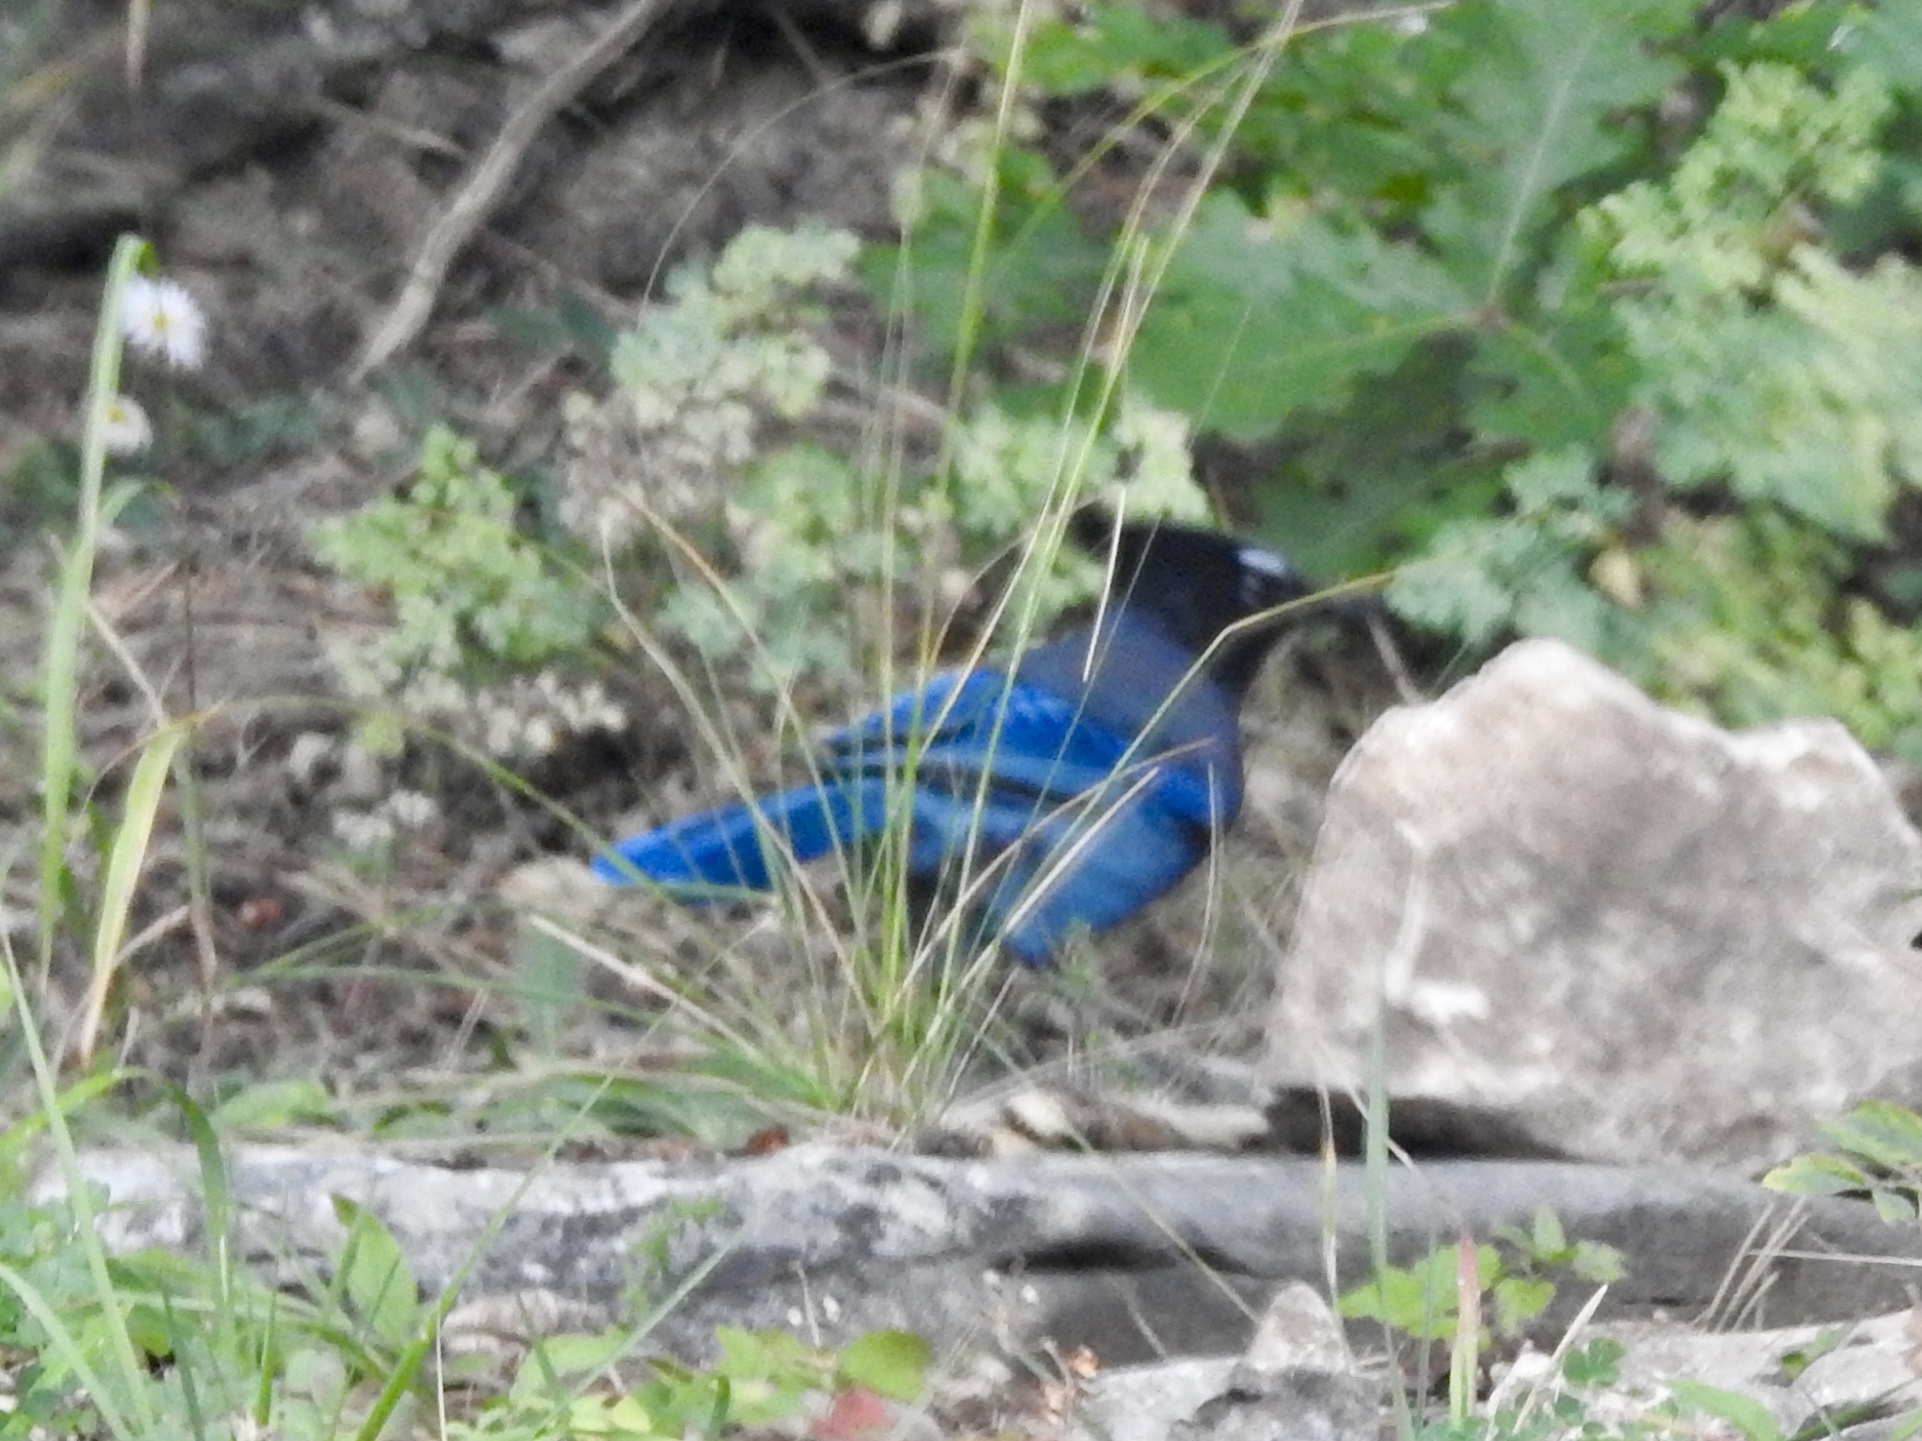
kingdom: Animalia
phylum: Chordata
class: Aves
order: Passeriformes
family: Corvidae
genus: Cyanocitta
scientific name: Cyanocitta stelleri
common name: Steller's jay
